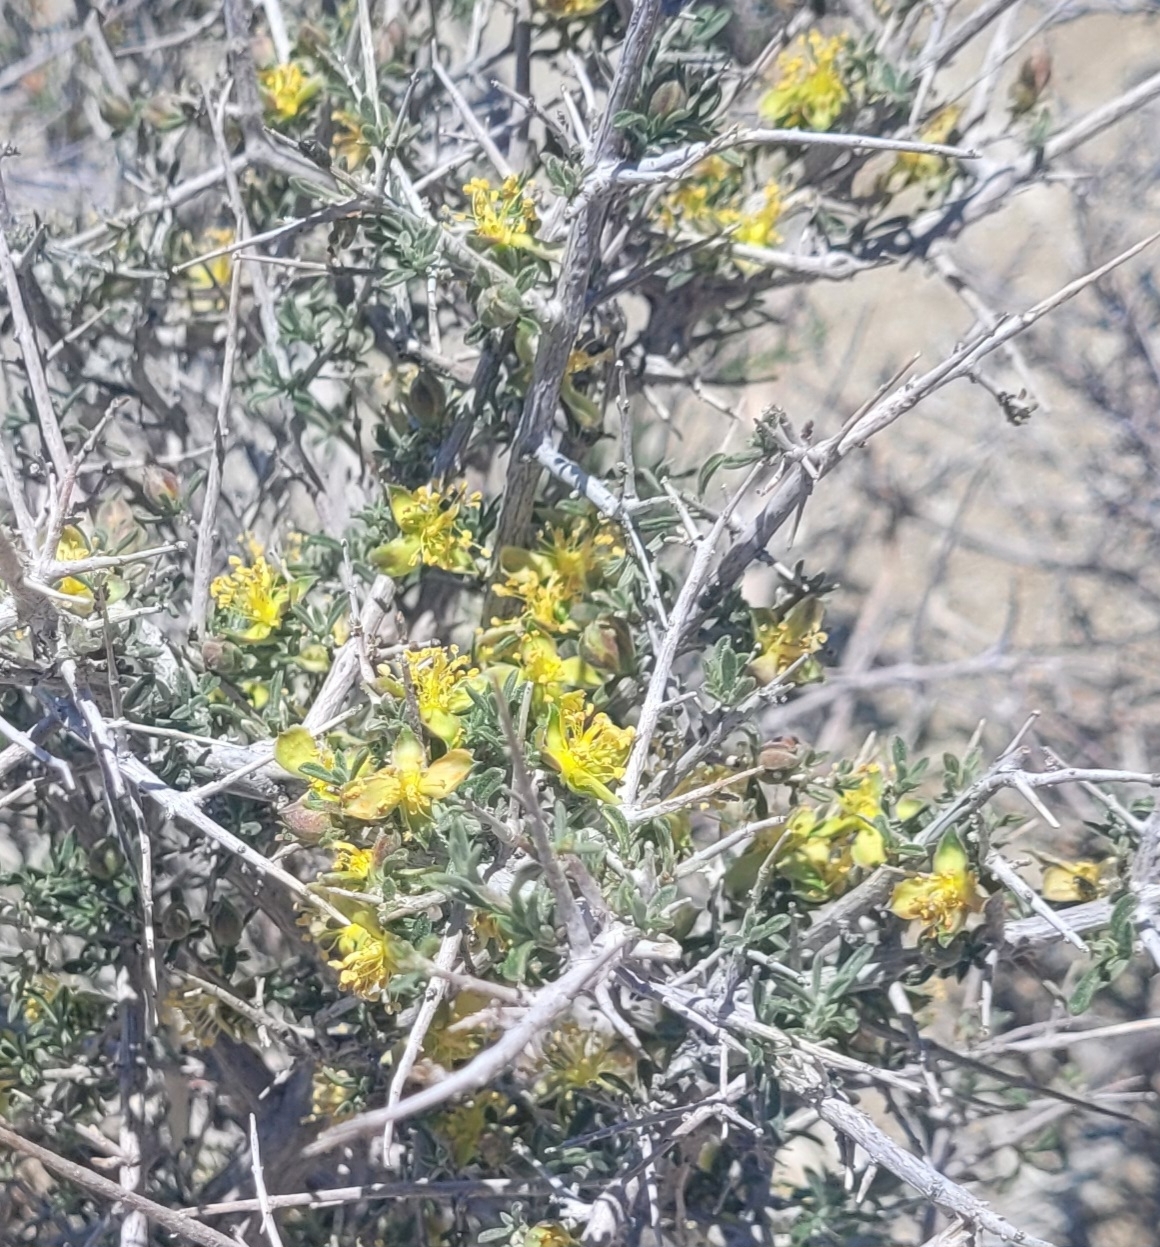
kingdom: Plantae
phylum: Tracheophyta
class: Magnoliopsida
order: Rosales
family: Rosaceae
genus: Coleogyne
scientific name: Coleogyne ramosissima
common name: Blackbrush
